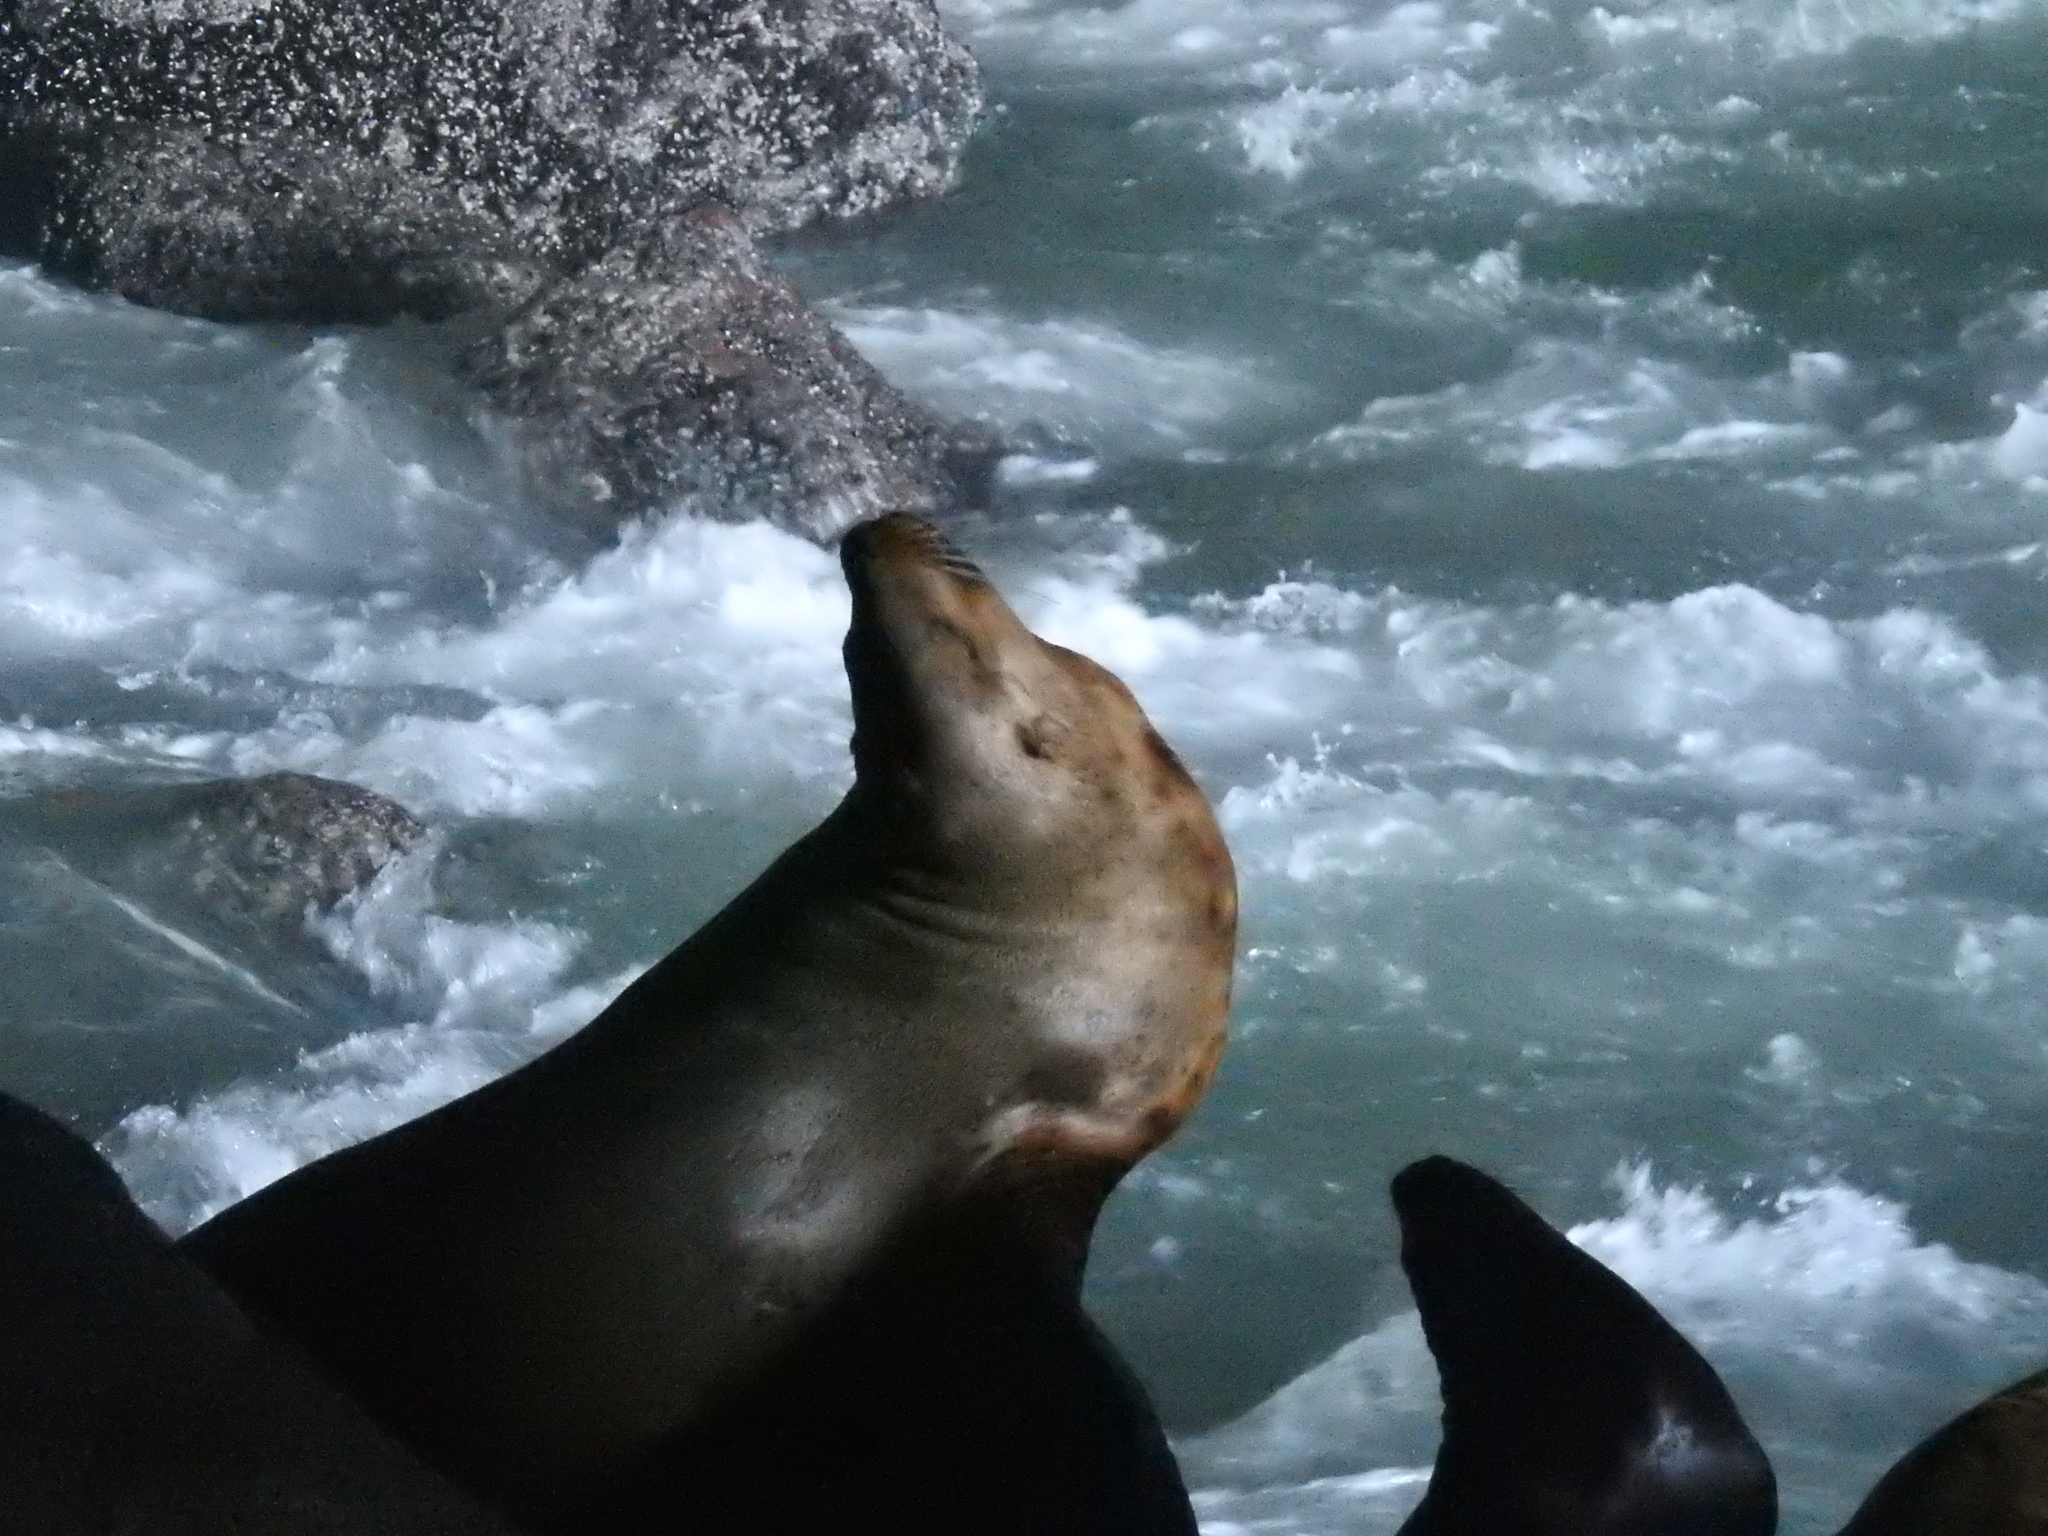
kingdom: Animalia
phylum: Chordata
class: Mammalia
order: Carnivora
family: Otariidae
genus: Zalophus
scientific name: Zalophus californianus
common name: California sea lion
